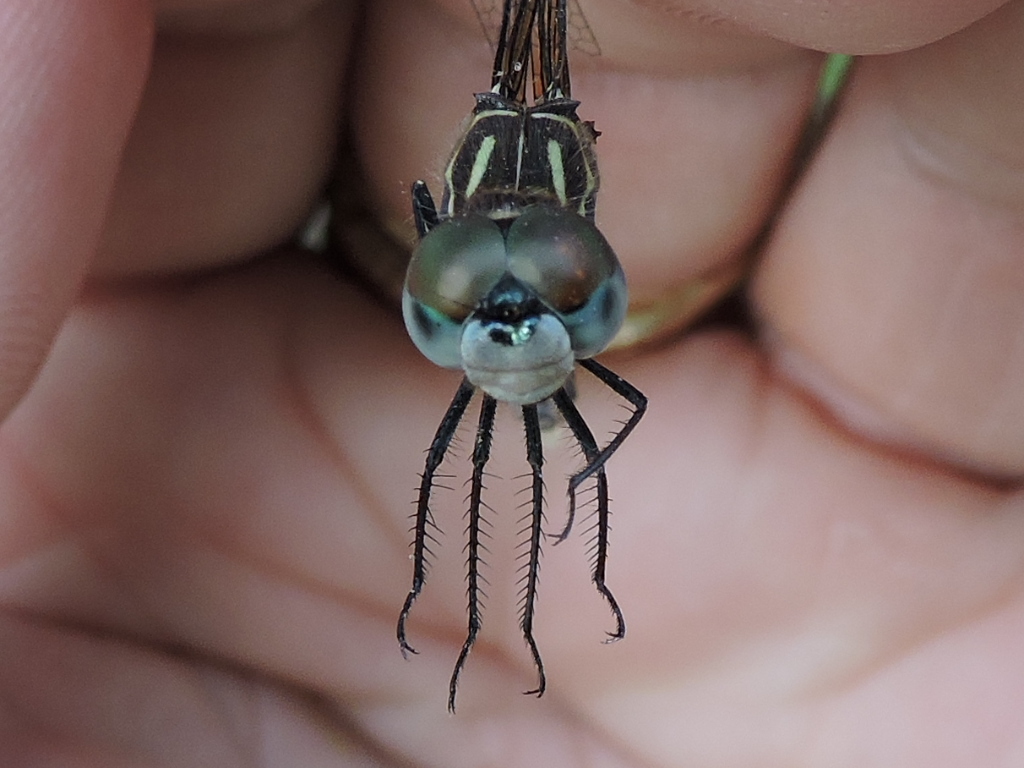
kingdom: Animalia
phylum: Arthropoda
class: Insecta
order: Odonata
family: Libellulidae
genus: Pachydiplax
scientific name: Pachydiplax longipennis
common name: Blue dasher
